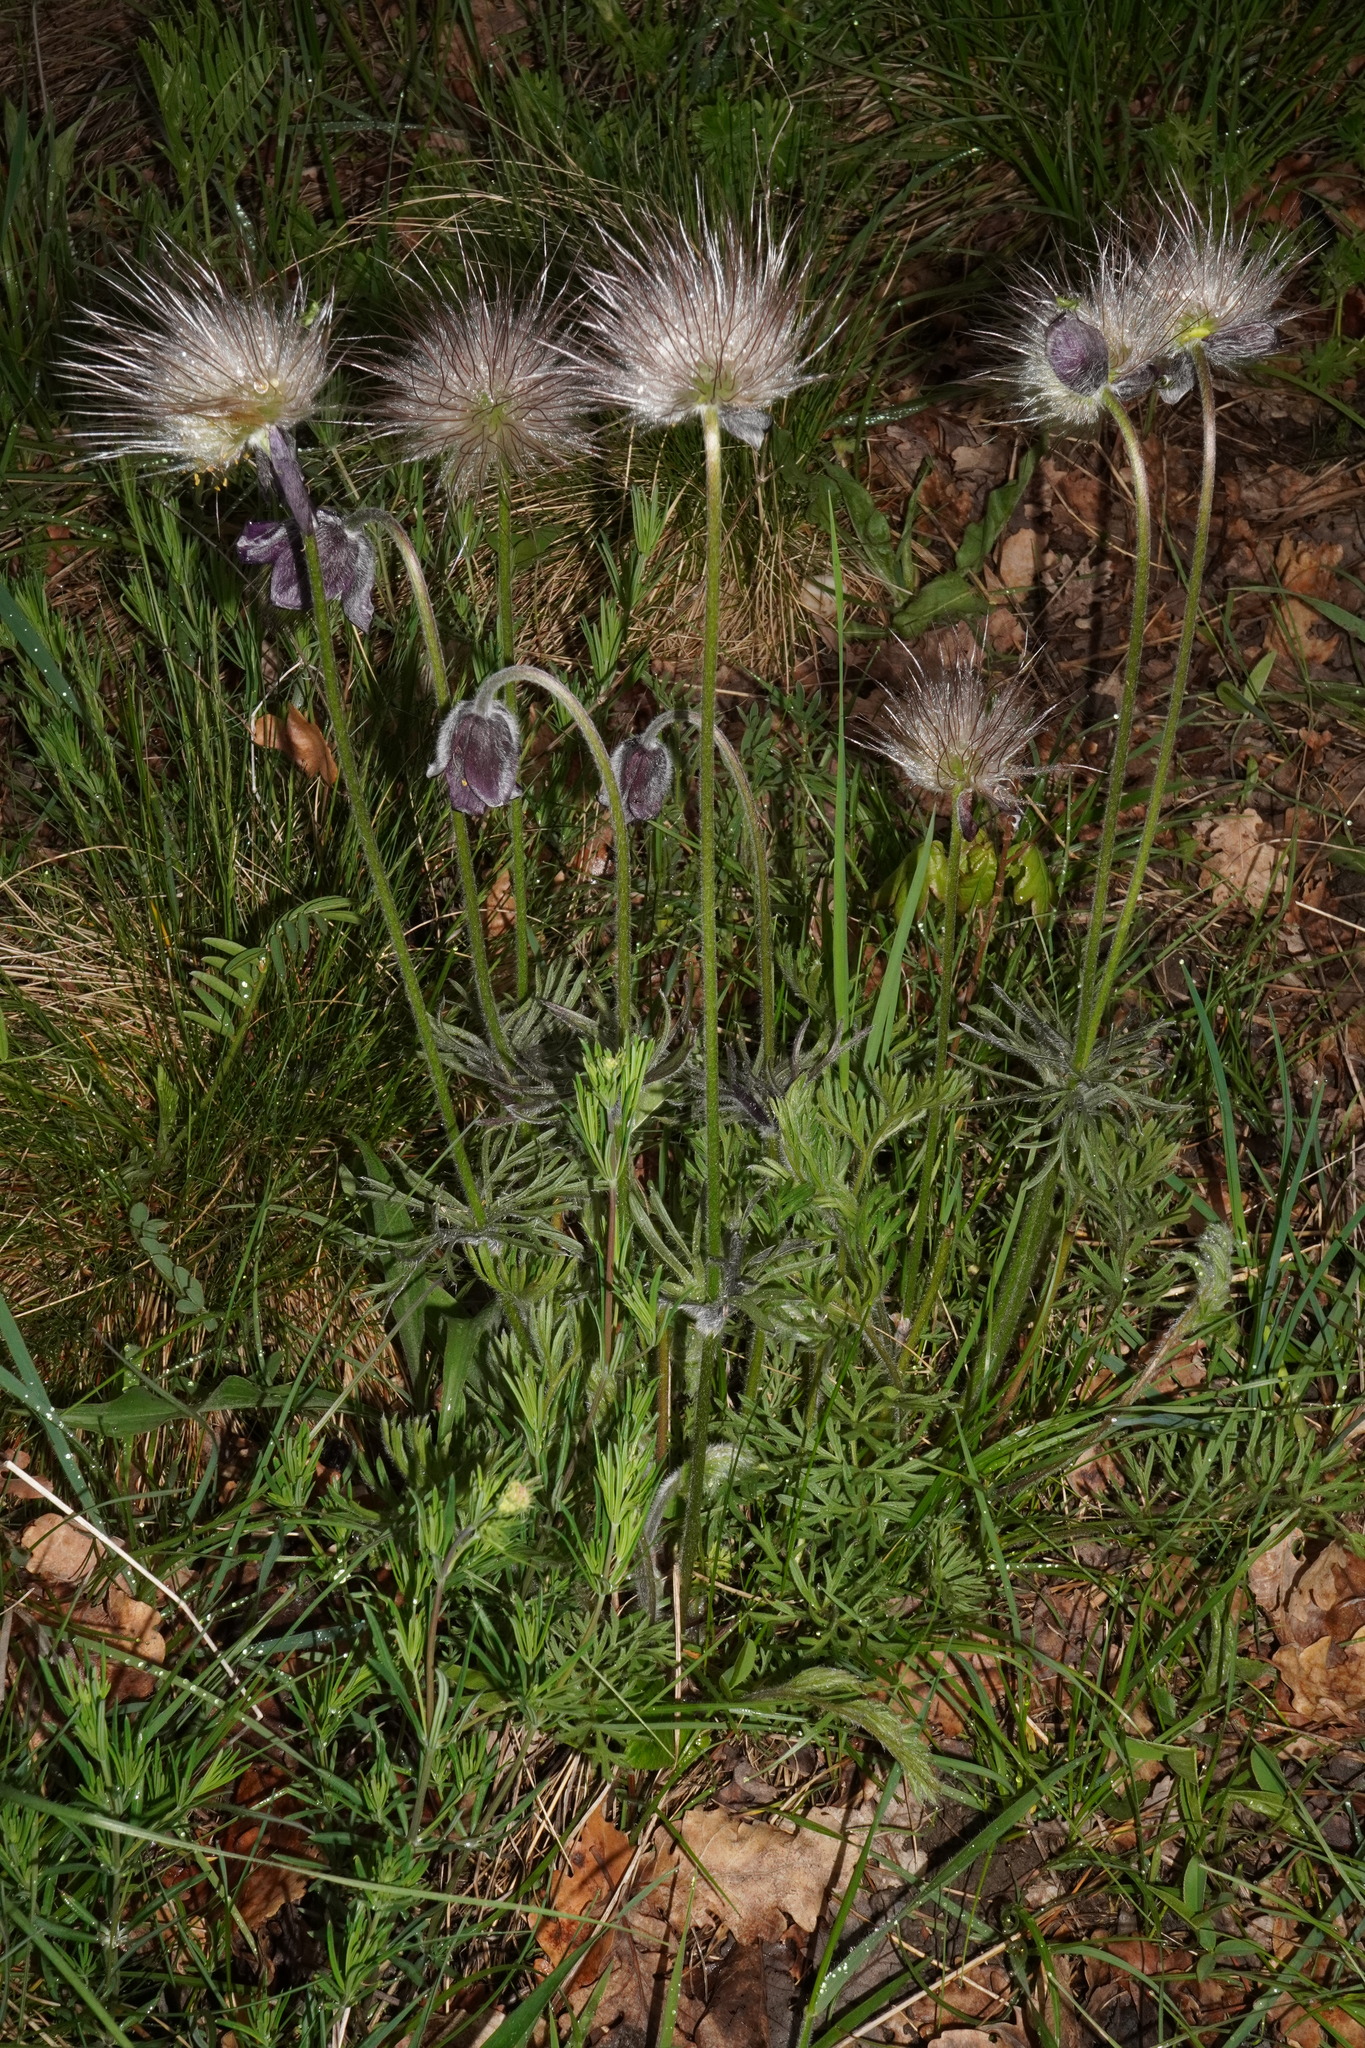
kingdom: Plantae
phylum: Tracheophyta
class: Magnoliopsida
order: Ranunculales
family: Ranunculaceae
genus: Pulsatilla
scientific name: Pulsatilla pratensis
